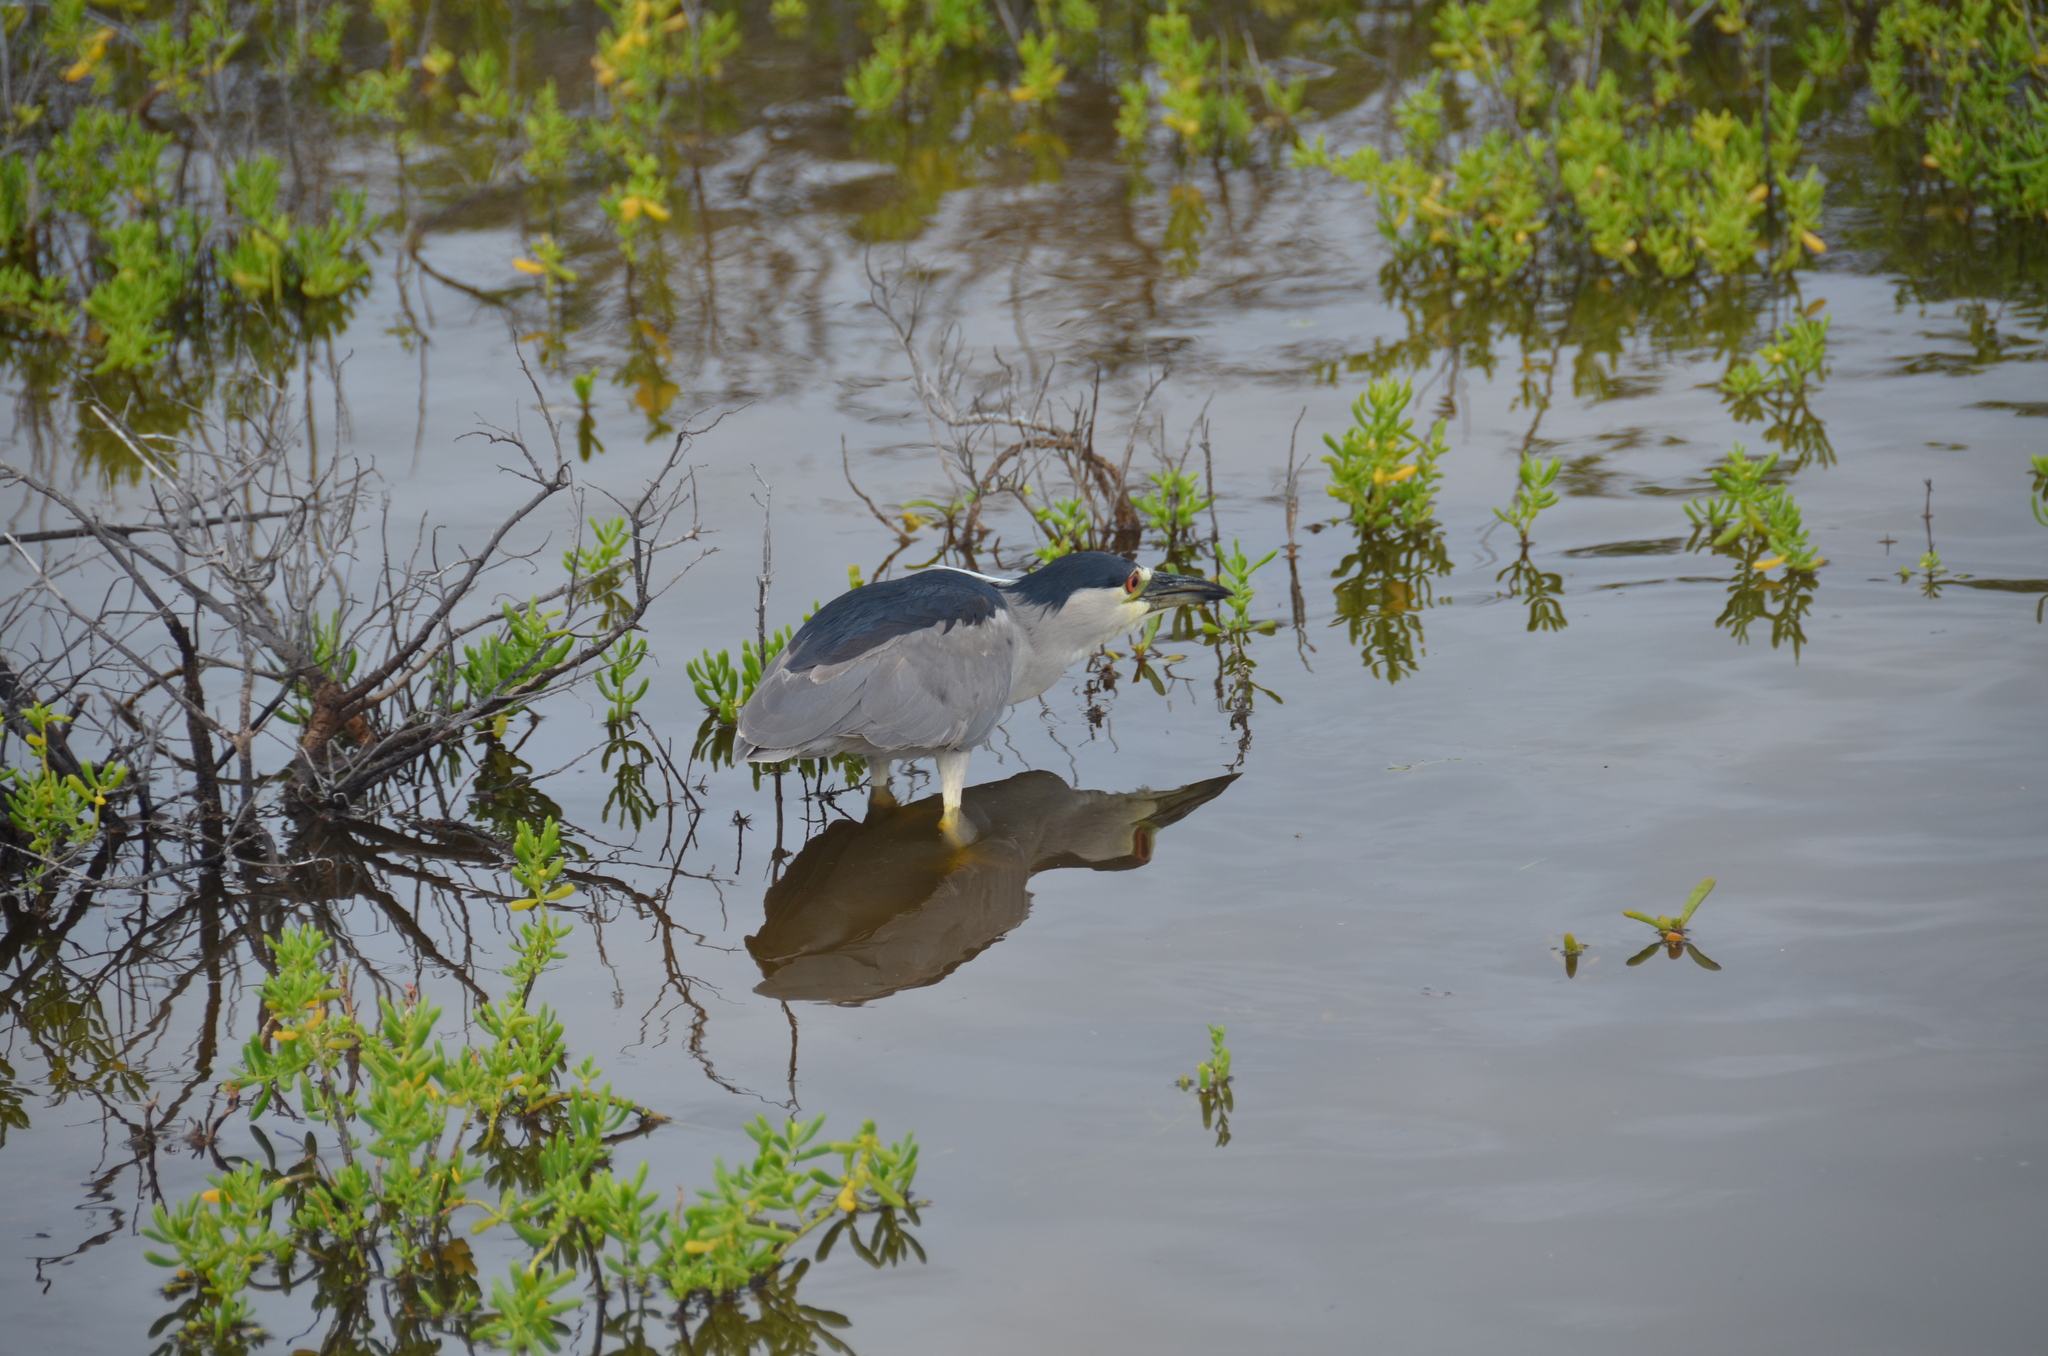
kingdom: Animalia
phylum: Chordata
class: Aves
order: Pelecaniformes
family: Ardeidae
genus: Nycticorax
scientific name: Nycticorax nycticorax
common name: Black-crowned night heron
